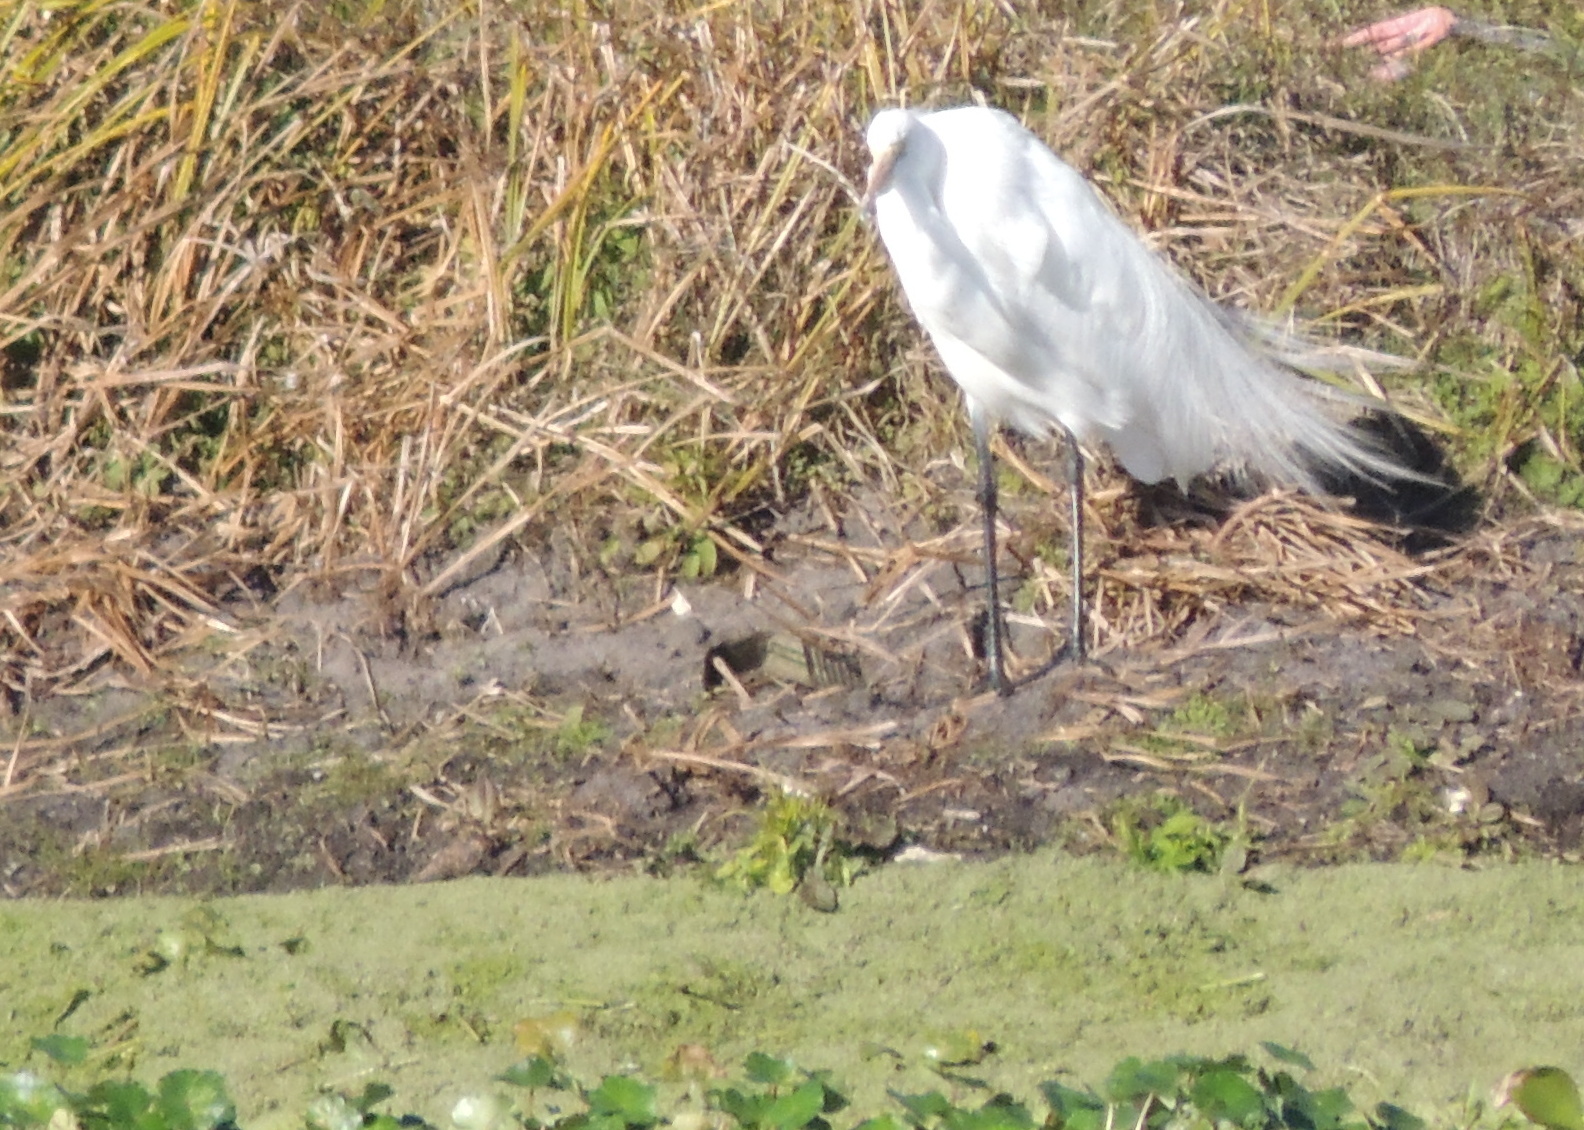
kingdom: Animalia
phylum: Chordata
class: Aves
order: Pelecaniformes
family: Ardeidae
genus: Ardea
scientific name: Ardea alba
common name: Great egret
